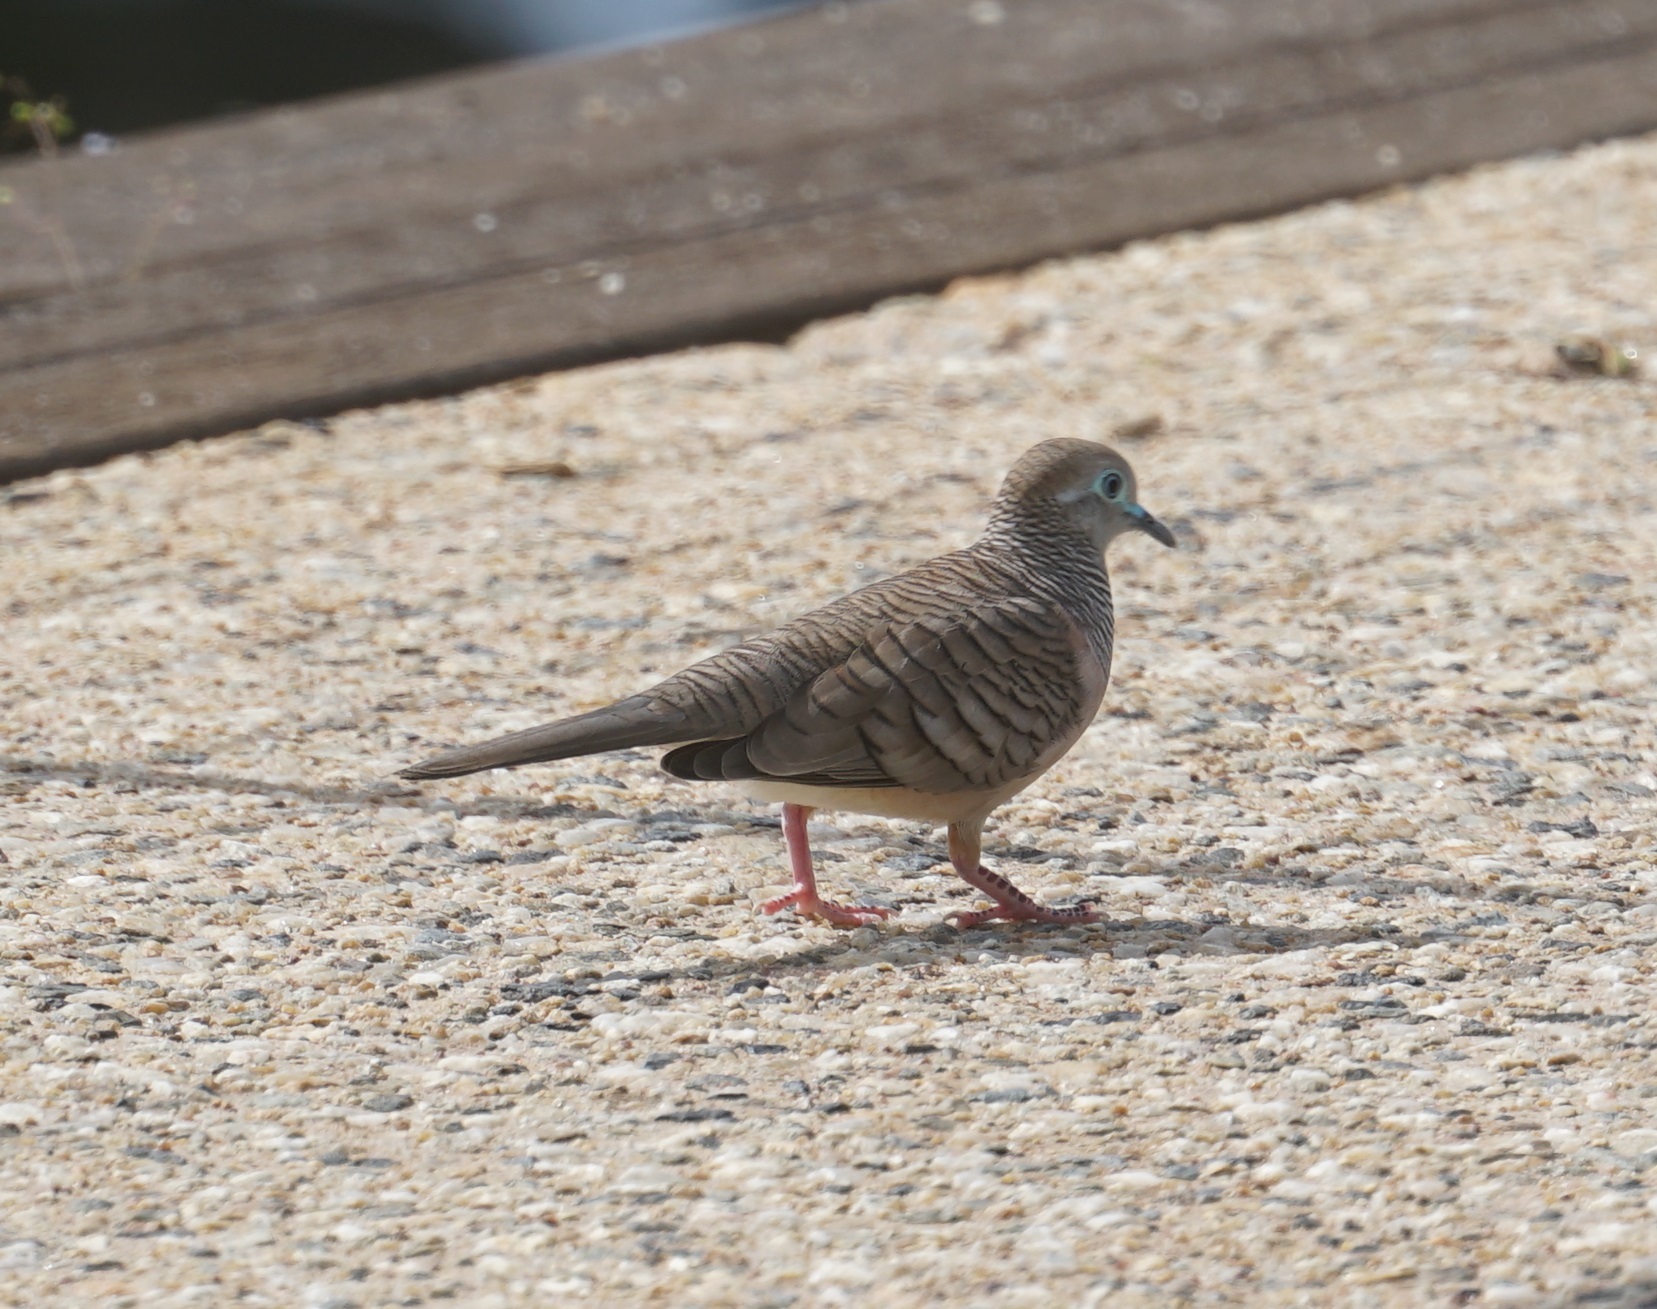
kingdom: Animalia
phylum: Chordata
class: Aves
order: Columbiformes
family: Columbidae
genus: Geopelia
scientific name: Geopelia placida
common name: Peaceful dove
